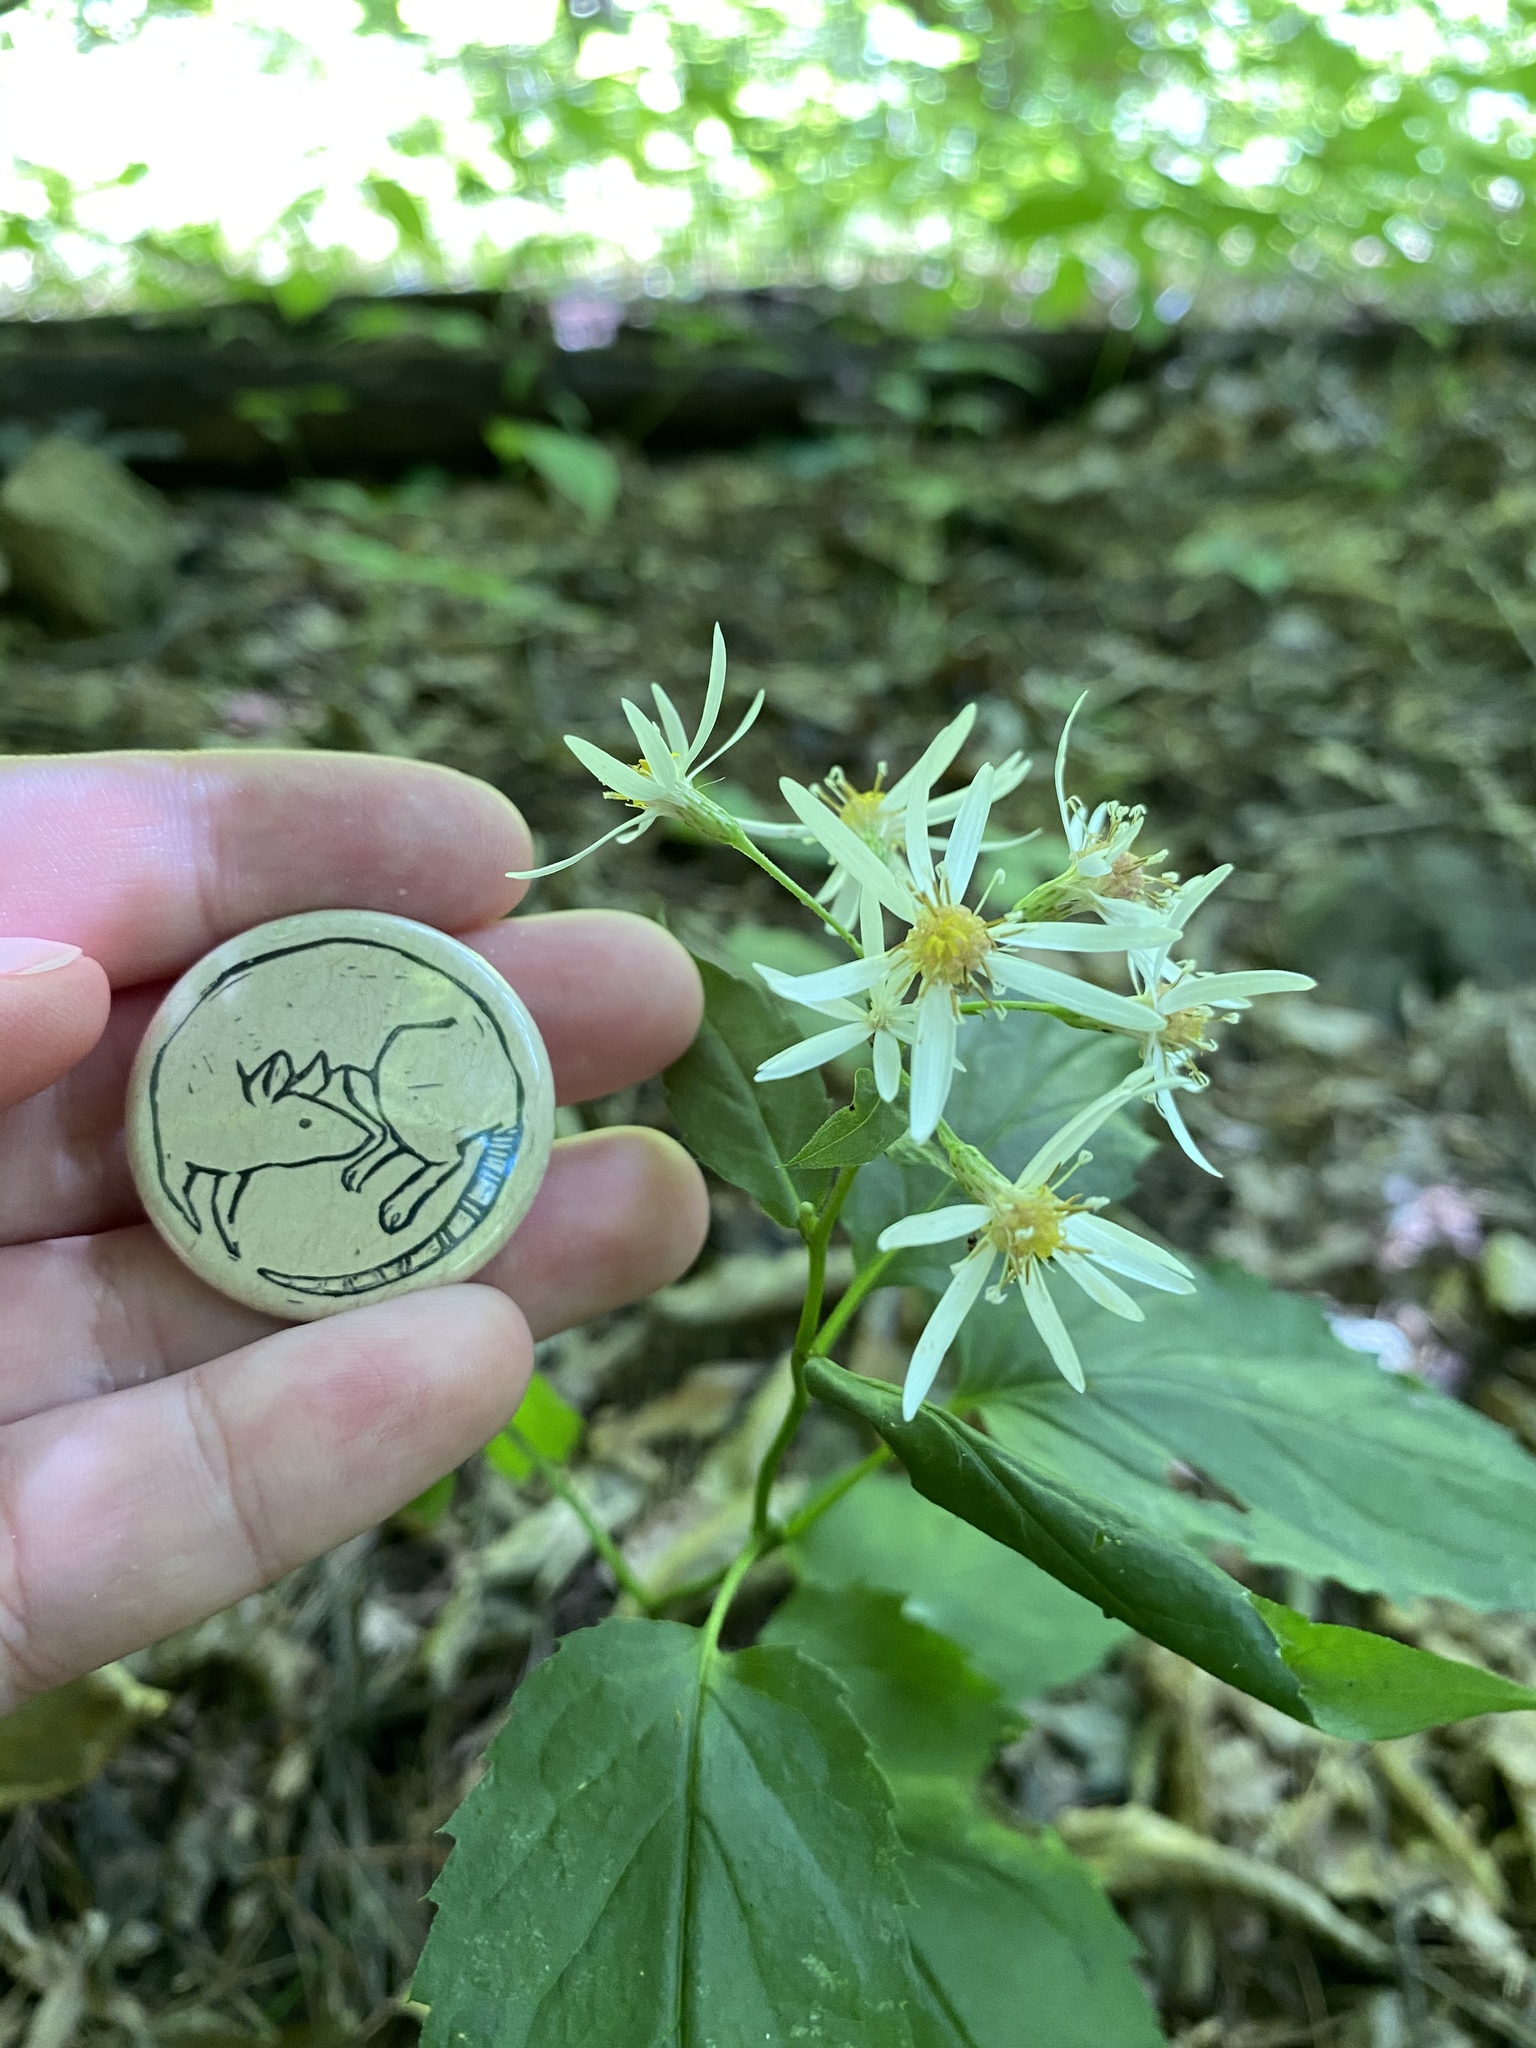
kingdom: Plantae
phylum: Tracheophyta
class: Magnoliopsida
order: Asterales
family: Asteraceae
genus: Eurybia
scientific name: Eurybia divaricata
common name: White wood aster
